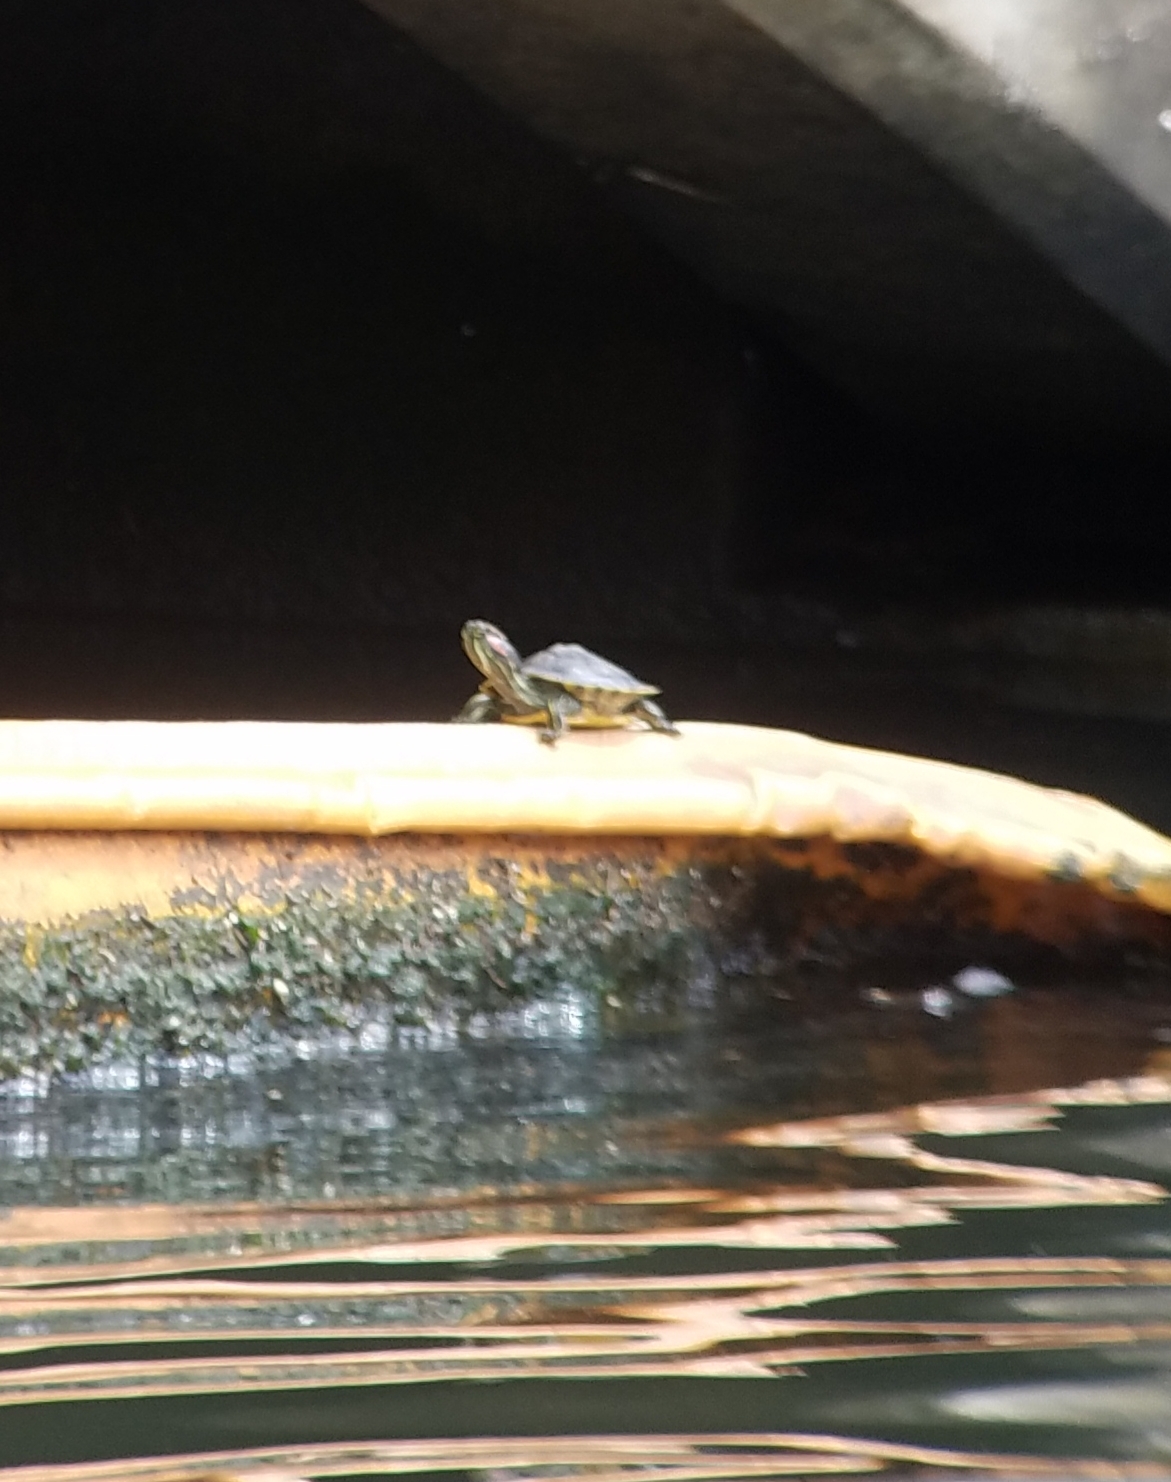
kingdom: Animalia
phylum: Chordata
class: Testudines
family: Emydidae
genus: Trachemys
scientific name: Trachemys scripta
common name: Slider
